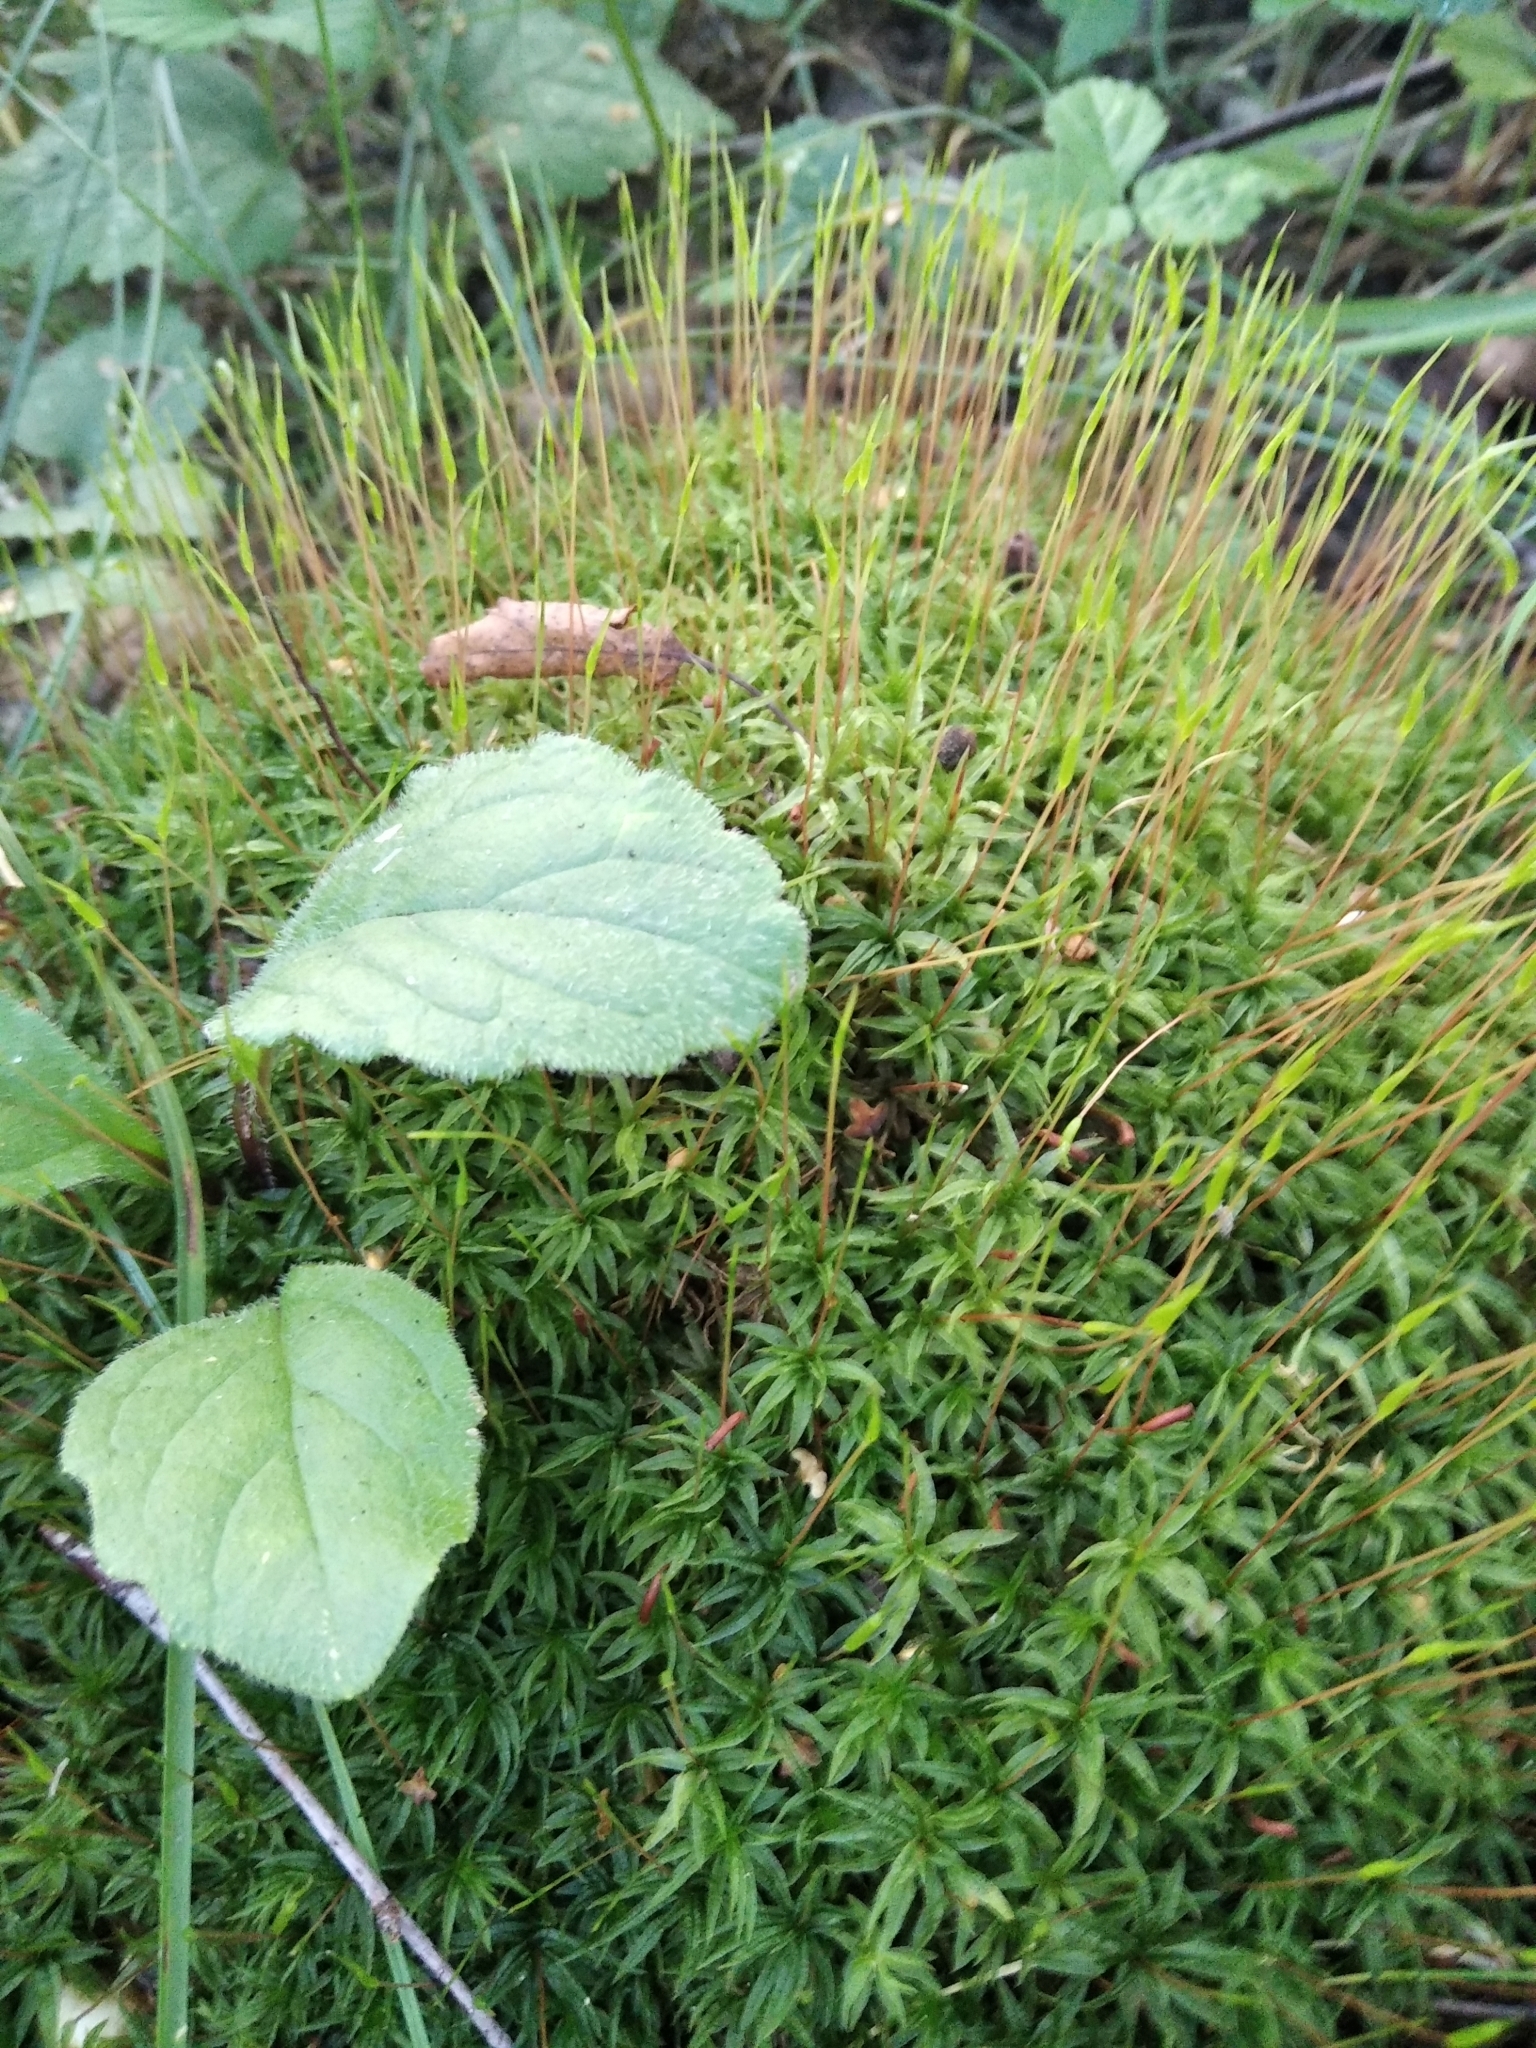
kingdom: Plantae
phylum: Bryophyta
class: Polytrichopsida
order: Polytrichales
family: Polytrichaceae
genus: Atrichum
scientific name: Atrichum undulatum
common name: Common smoothcap
